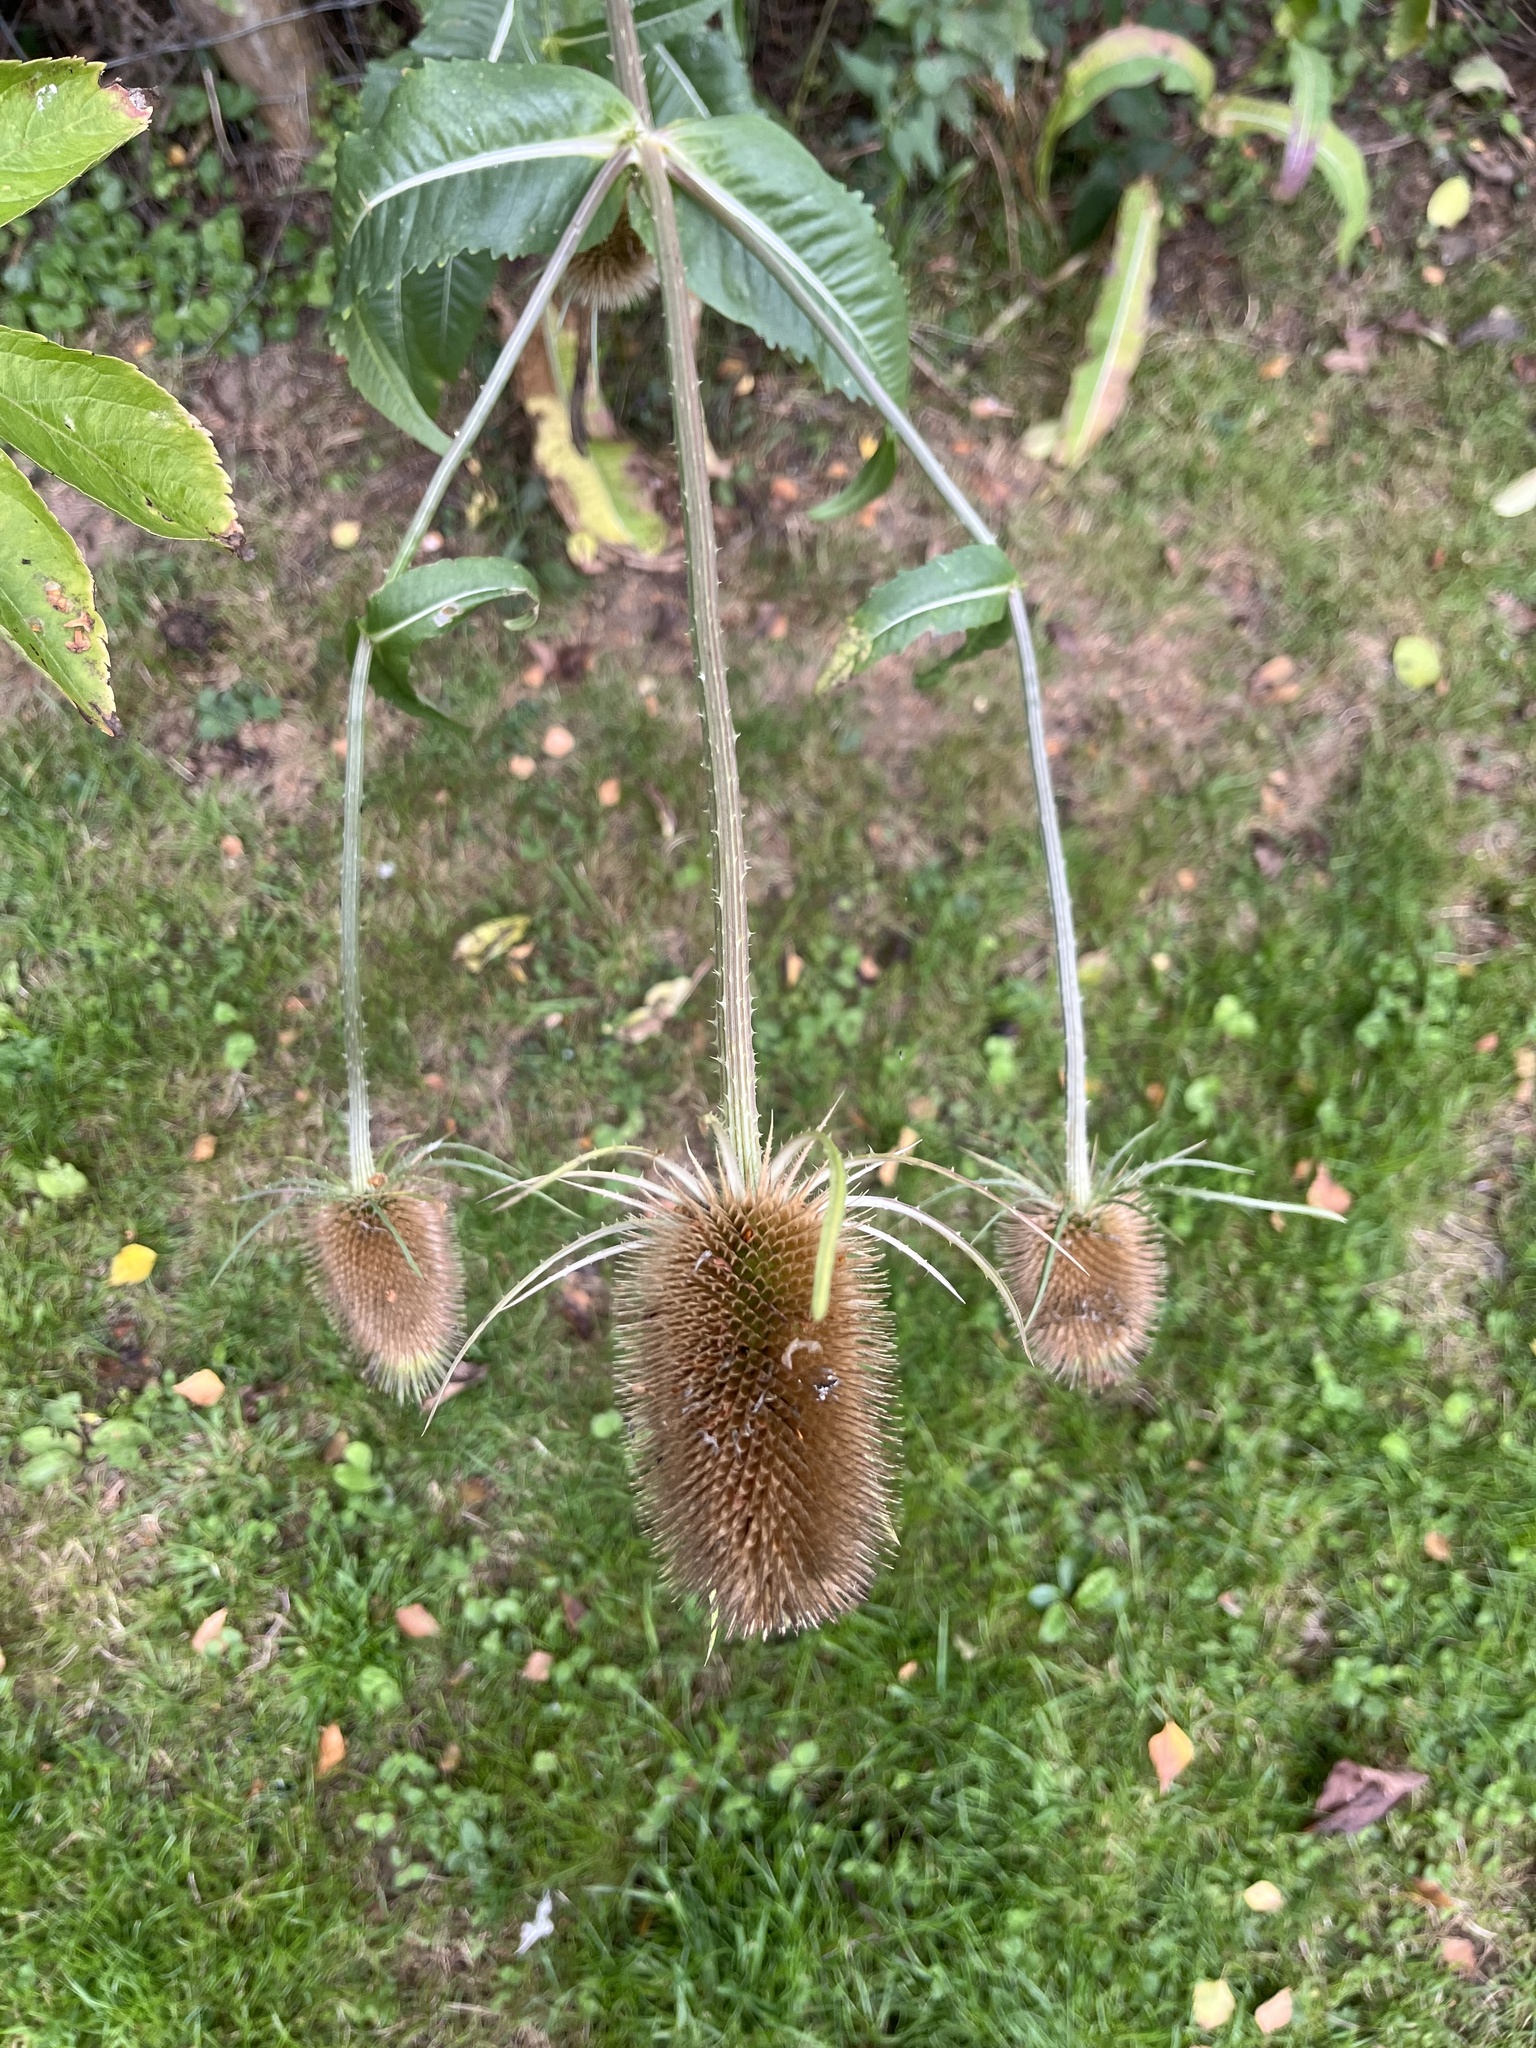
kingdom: Plantae
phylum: Tracheophyta
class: Magnoliopsida
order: Dipsacales
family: Caprifoliaceae
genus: Dipsacus
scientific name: Dipsacus fullonum
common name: Teasel
